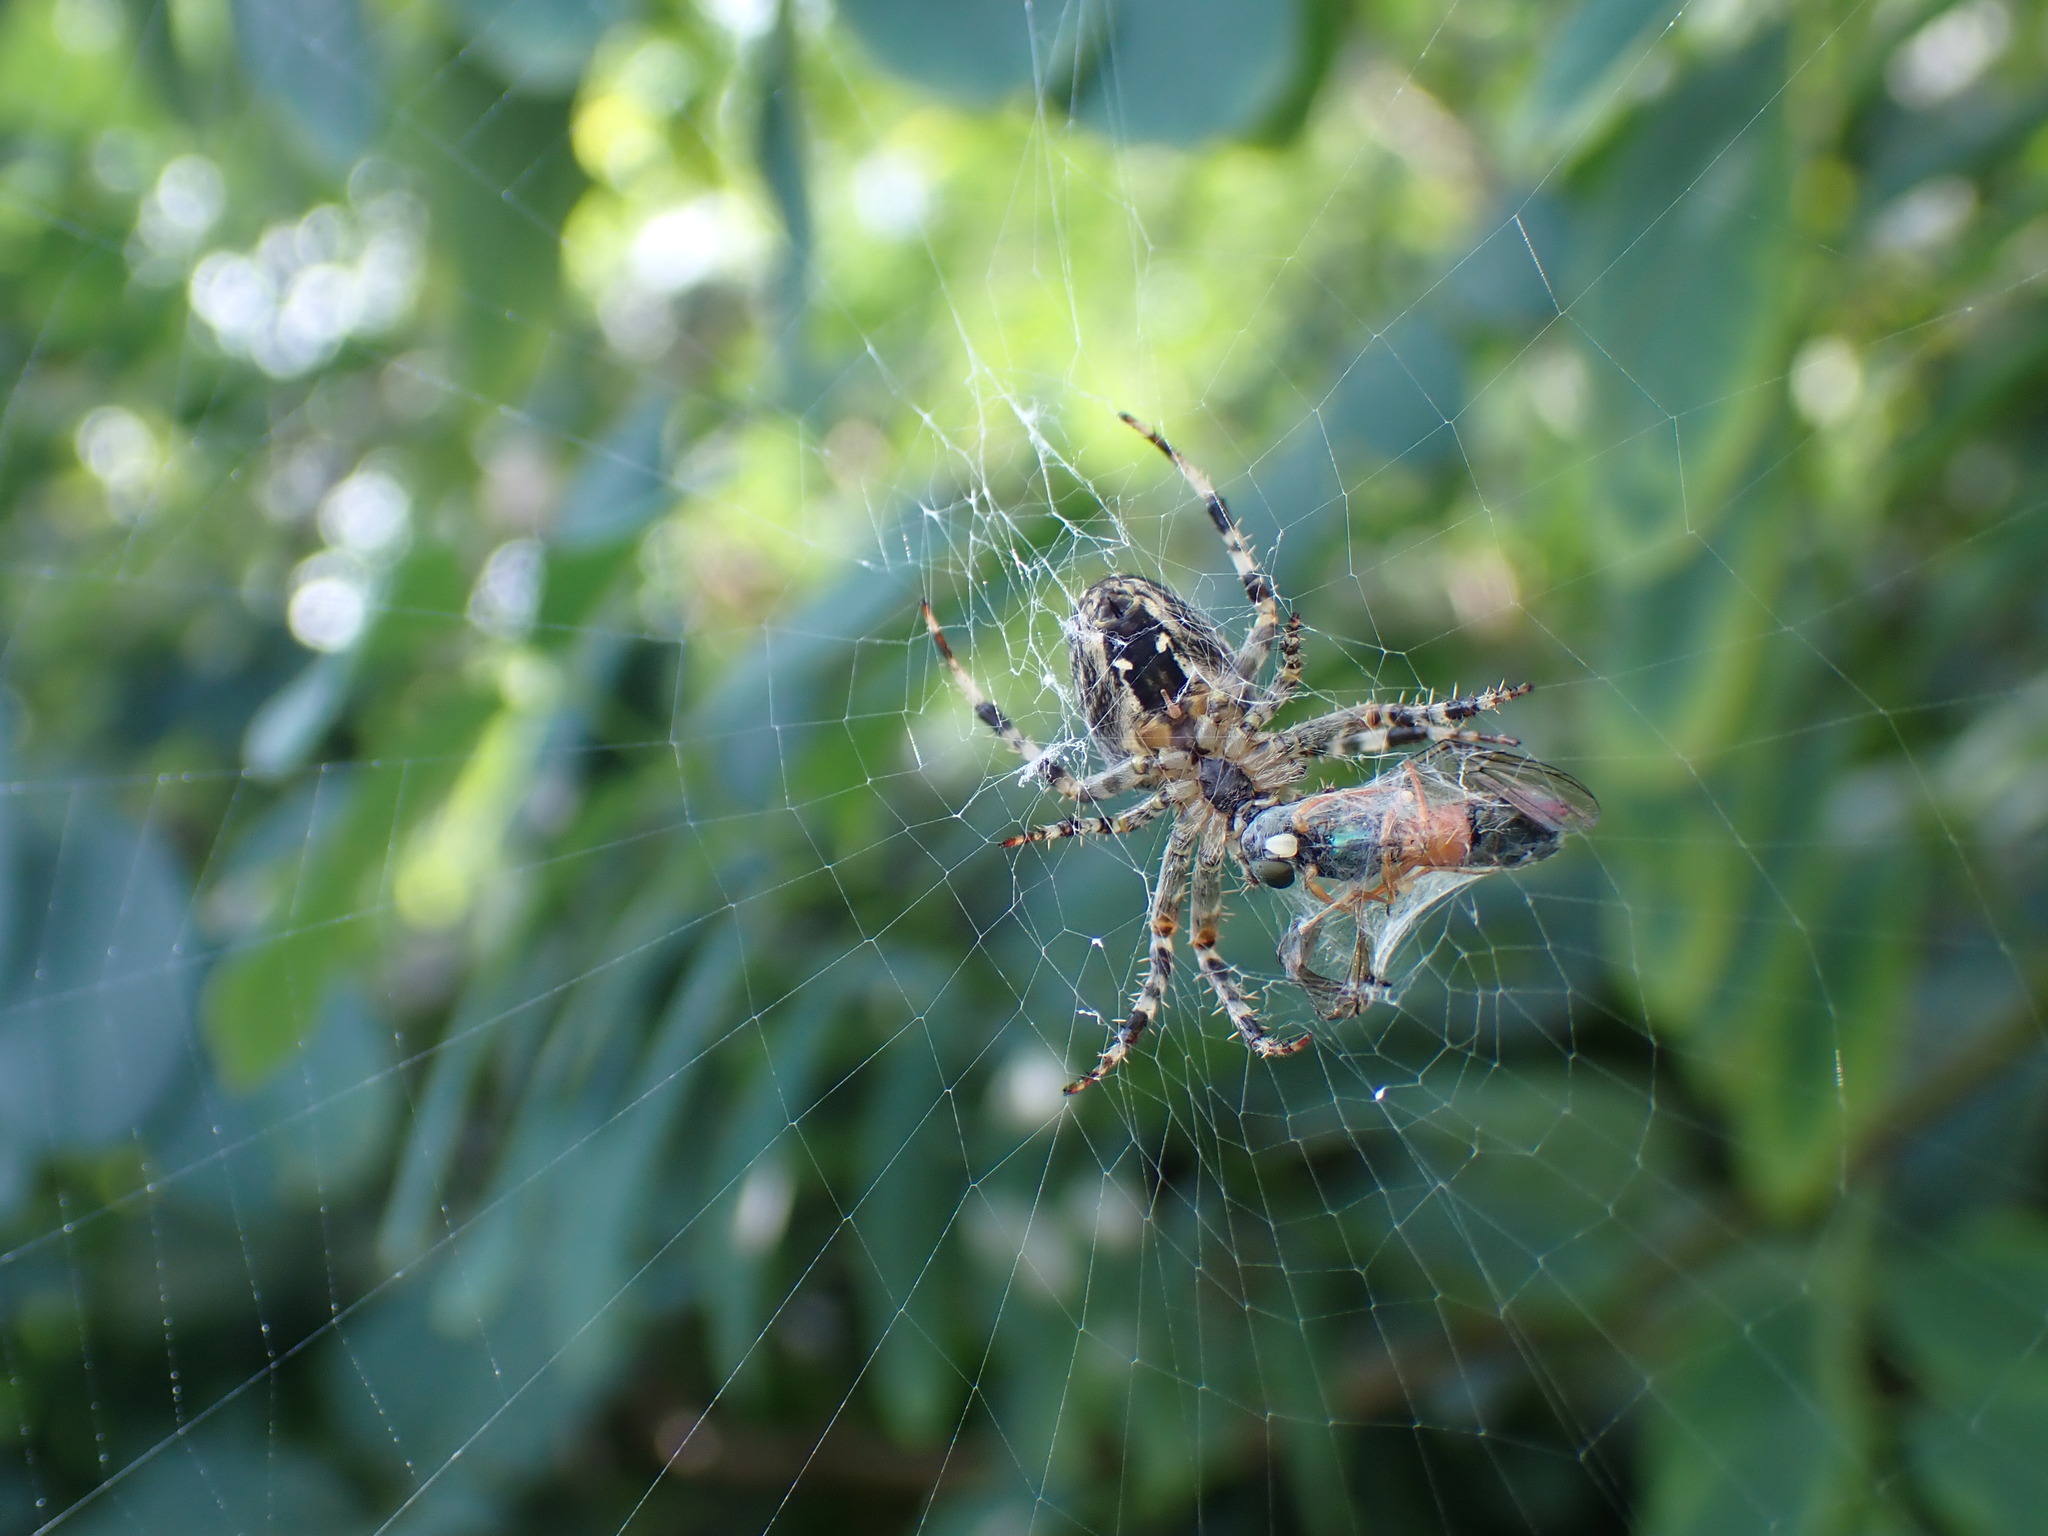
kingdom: Animalia
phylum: Arthropoda
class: Arachnida
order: Araneae
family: Araneidae
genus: Araneus
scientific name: Araneus diadematus
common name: Cross orbweaver
